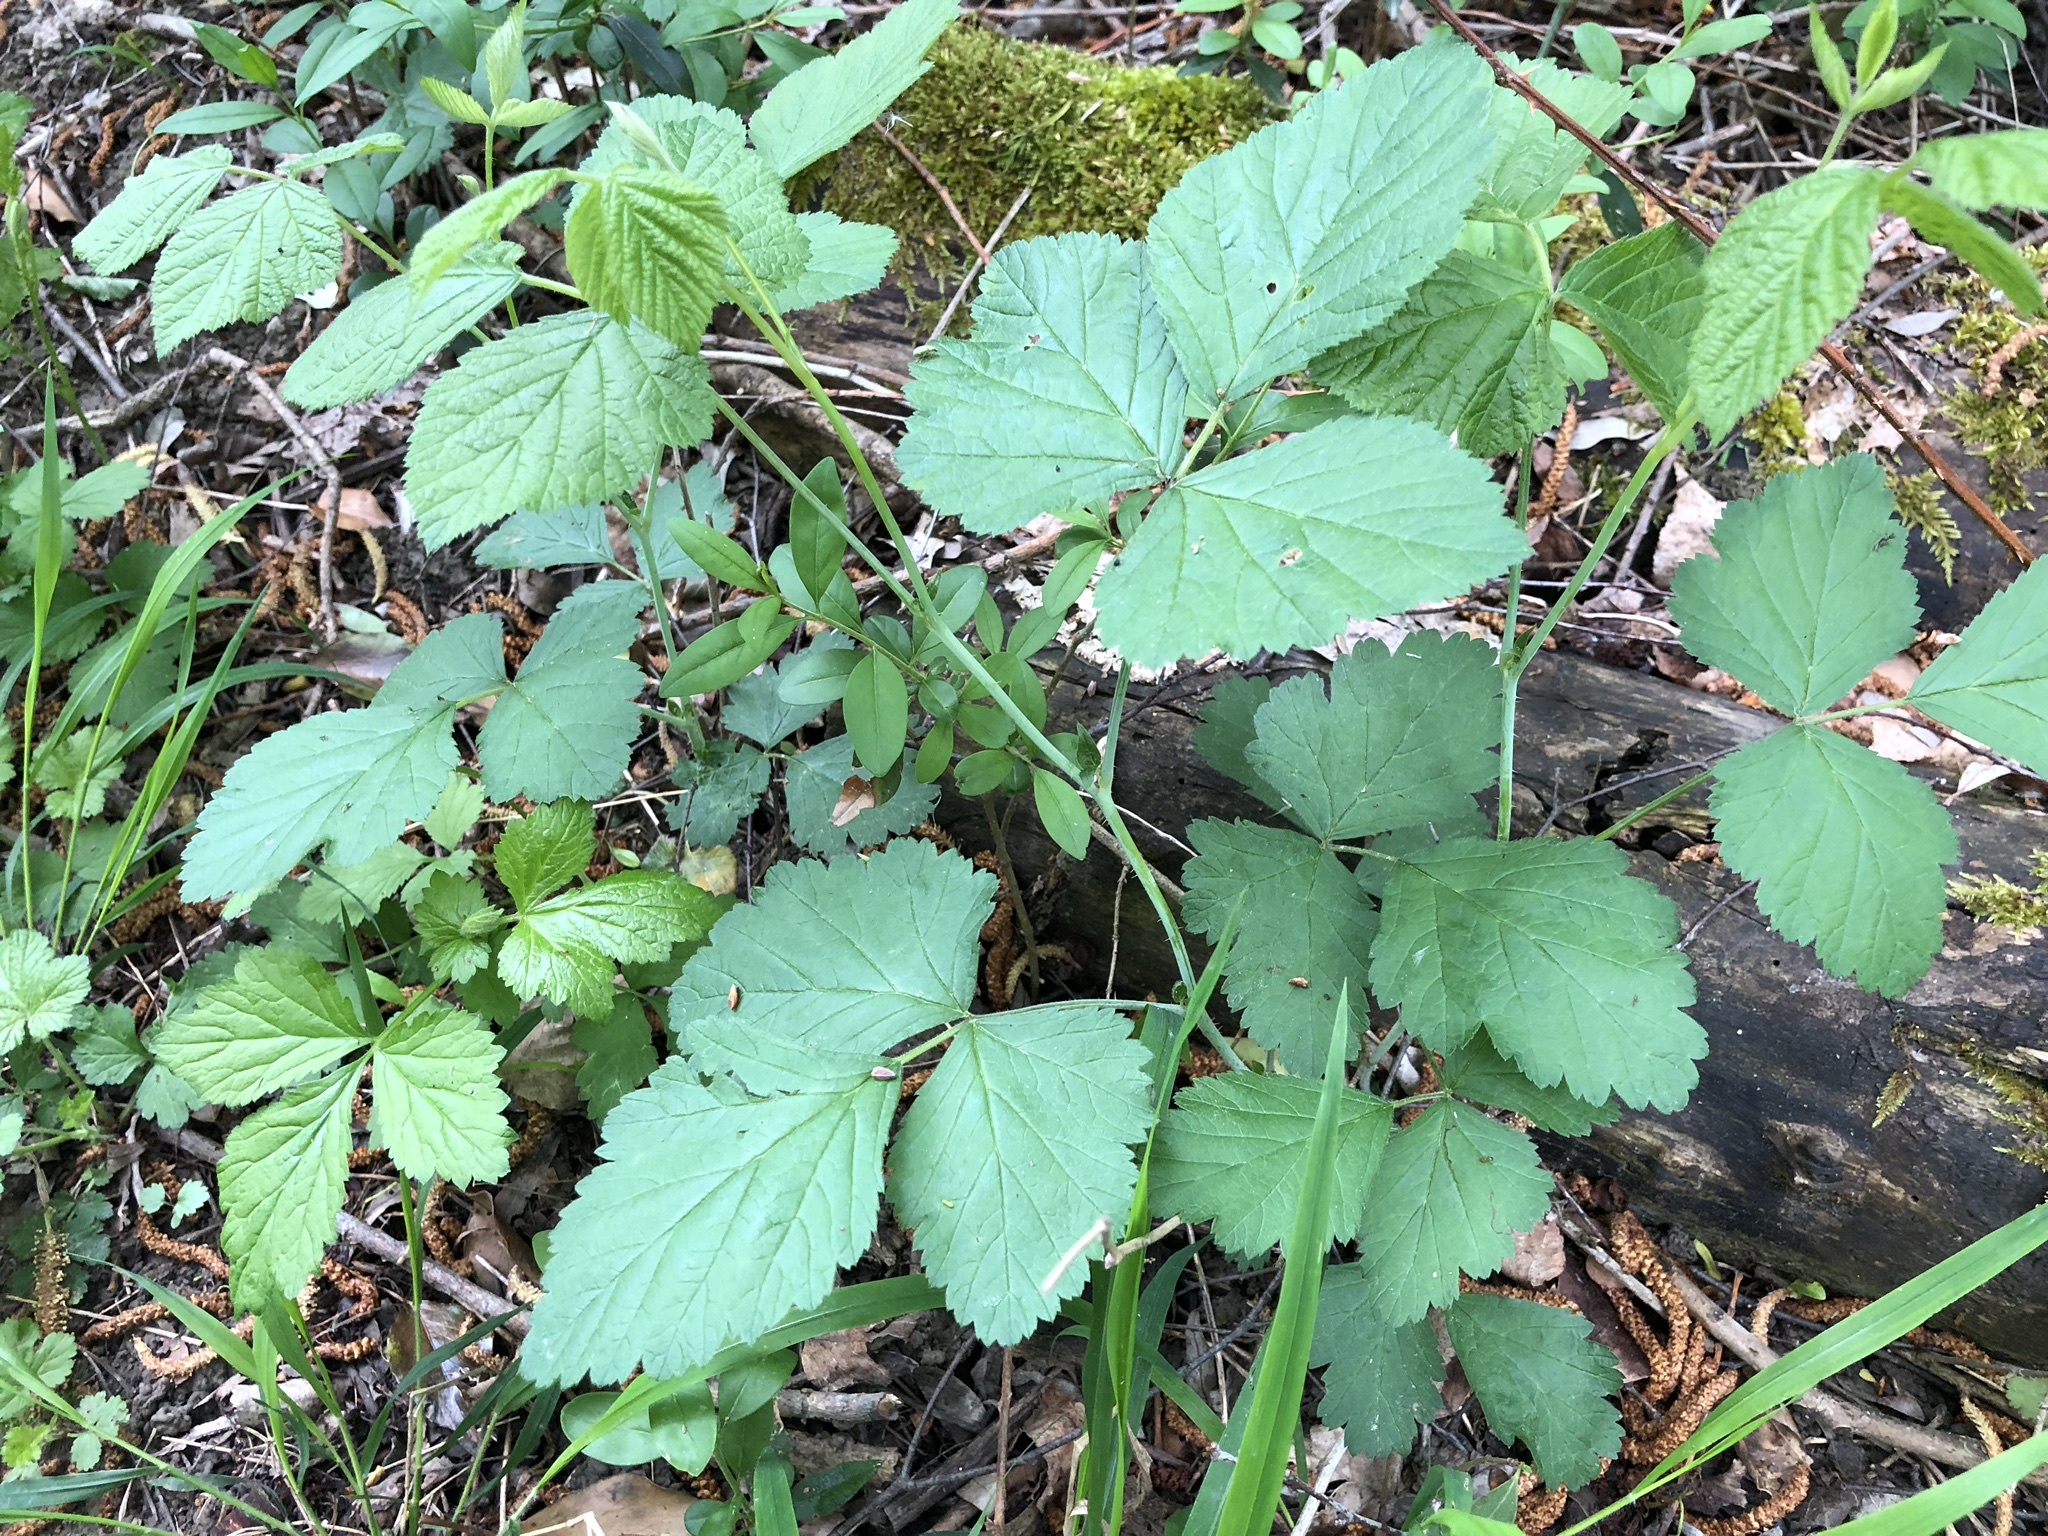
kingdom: Plantae
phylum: Tracheophyta
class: Magnoliopsida
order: Rosales
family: Rosaceae
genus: Rubus
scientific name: Rubus caesius
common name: Dewberry
